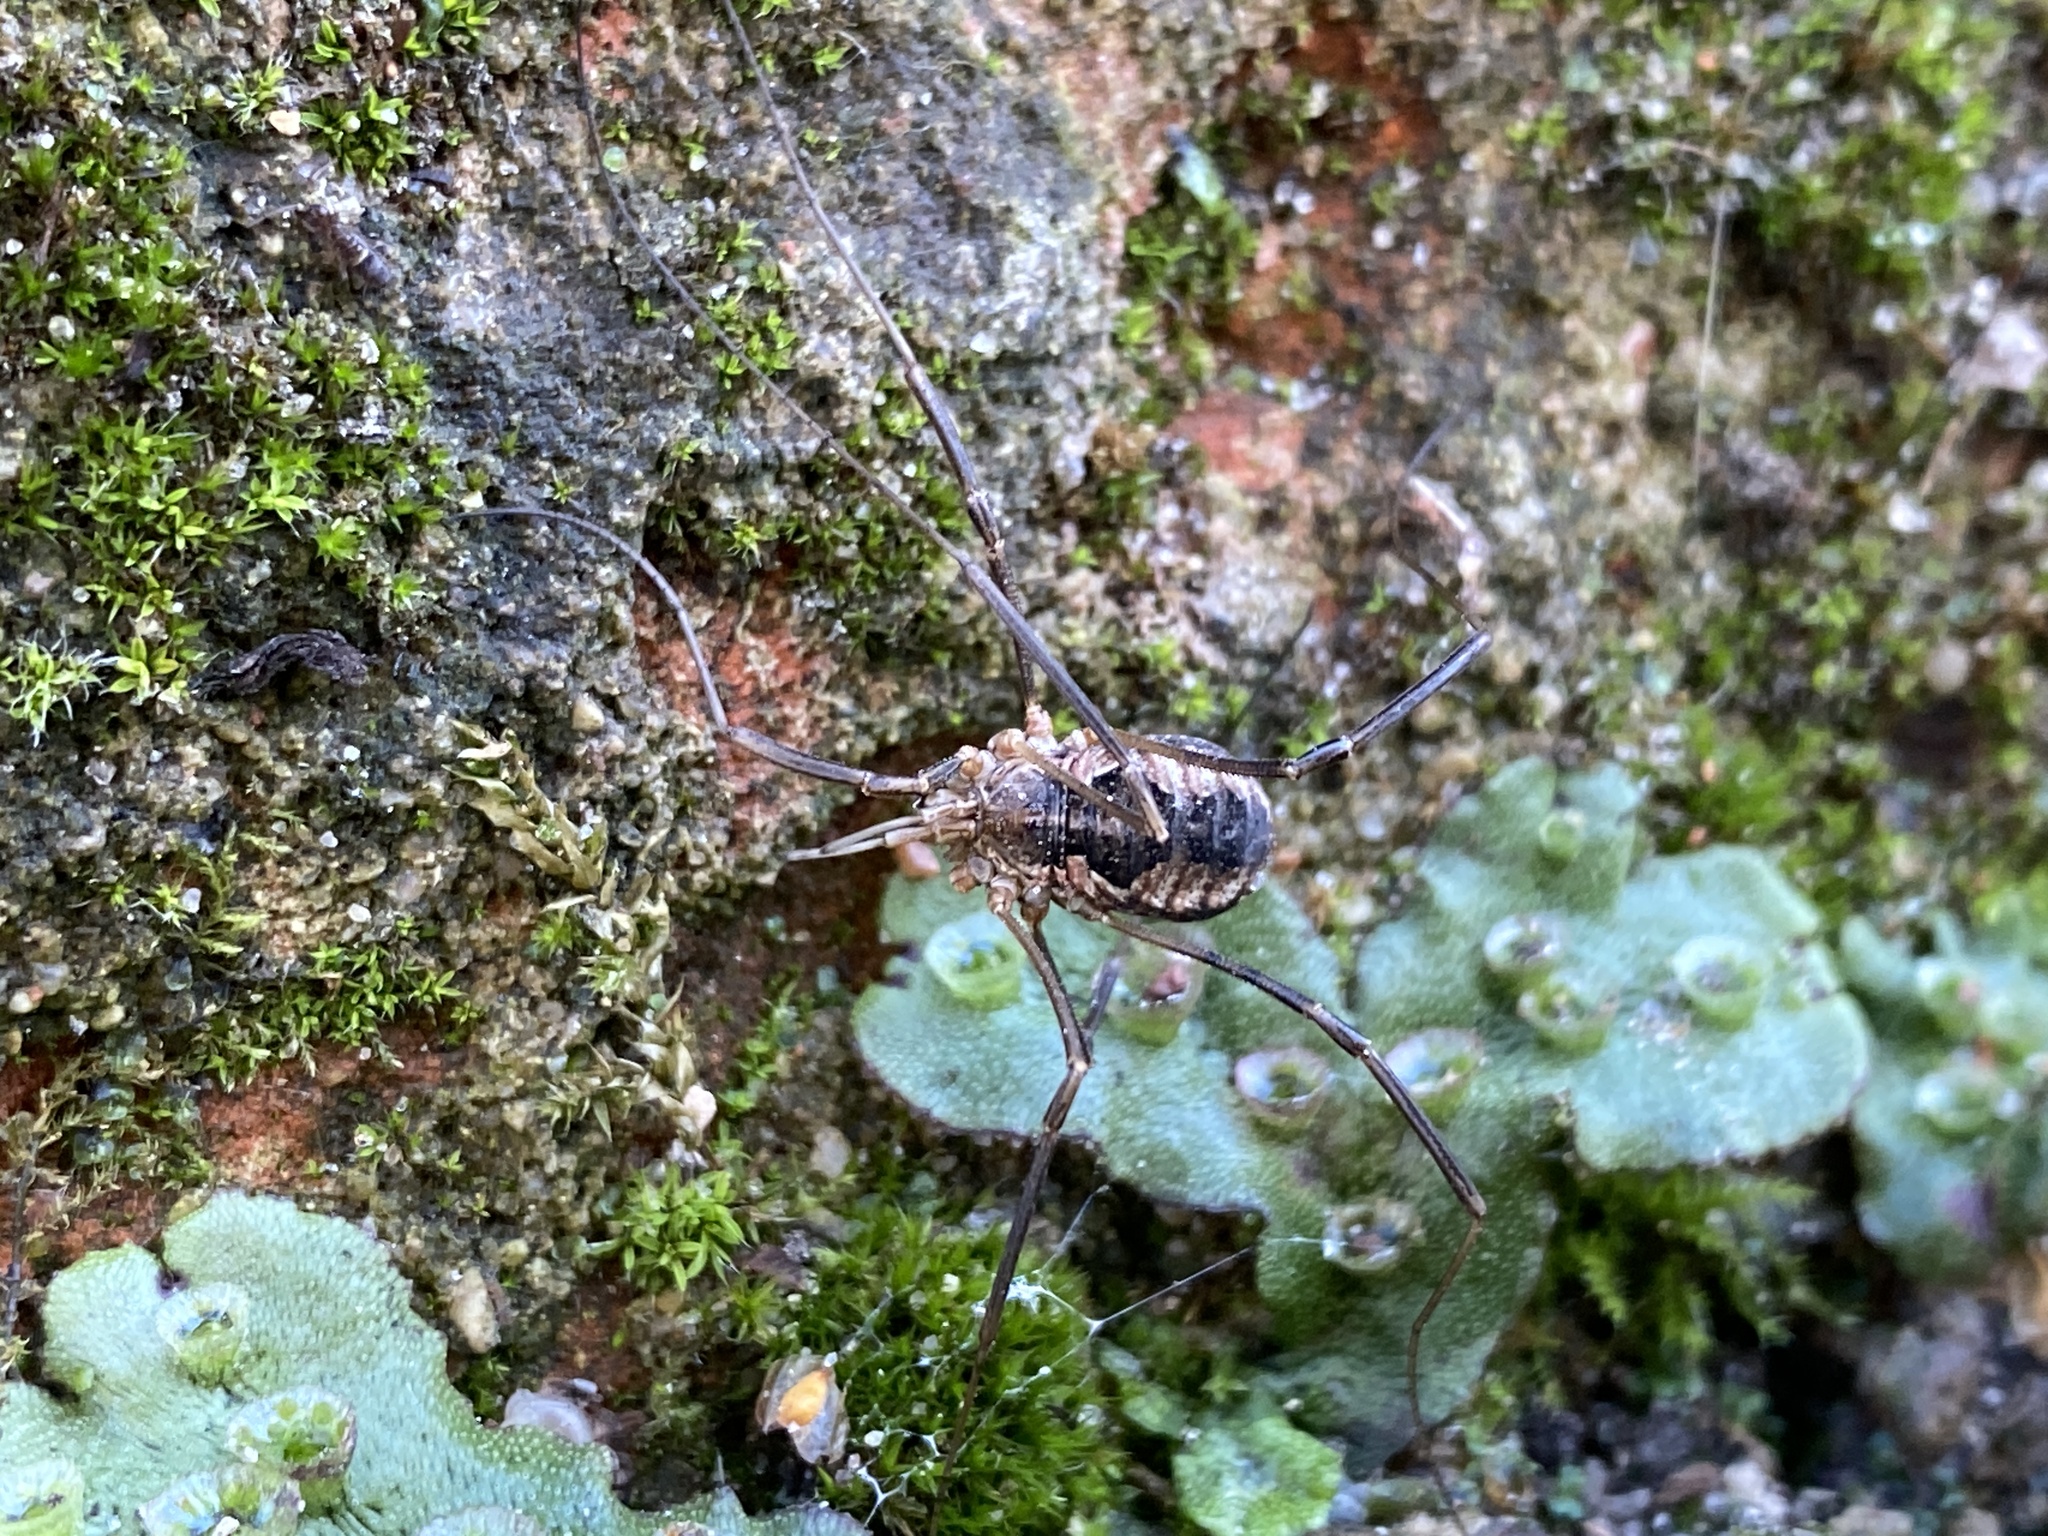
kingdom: Animalia
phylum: Arthropoda
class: Arachnida
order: Opiliones
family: Phalangiidae
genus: Phalangium
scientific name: Phalangium opilio
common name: Daddy longleg
